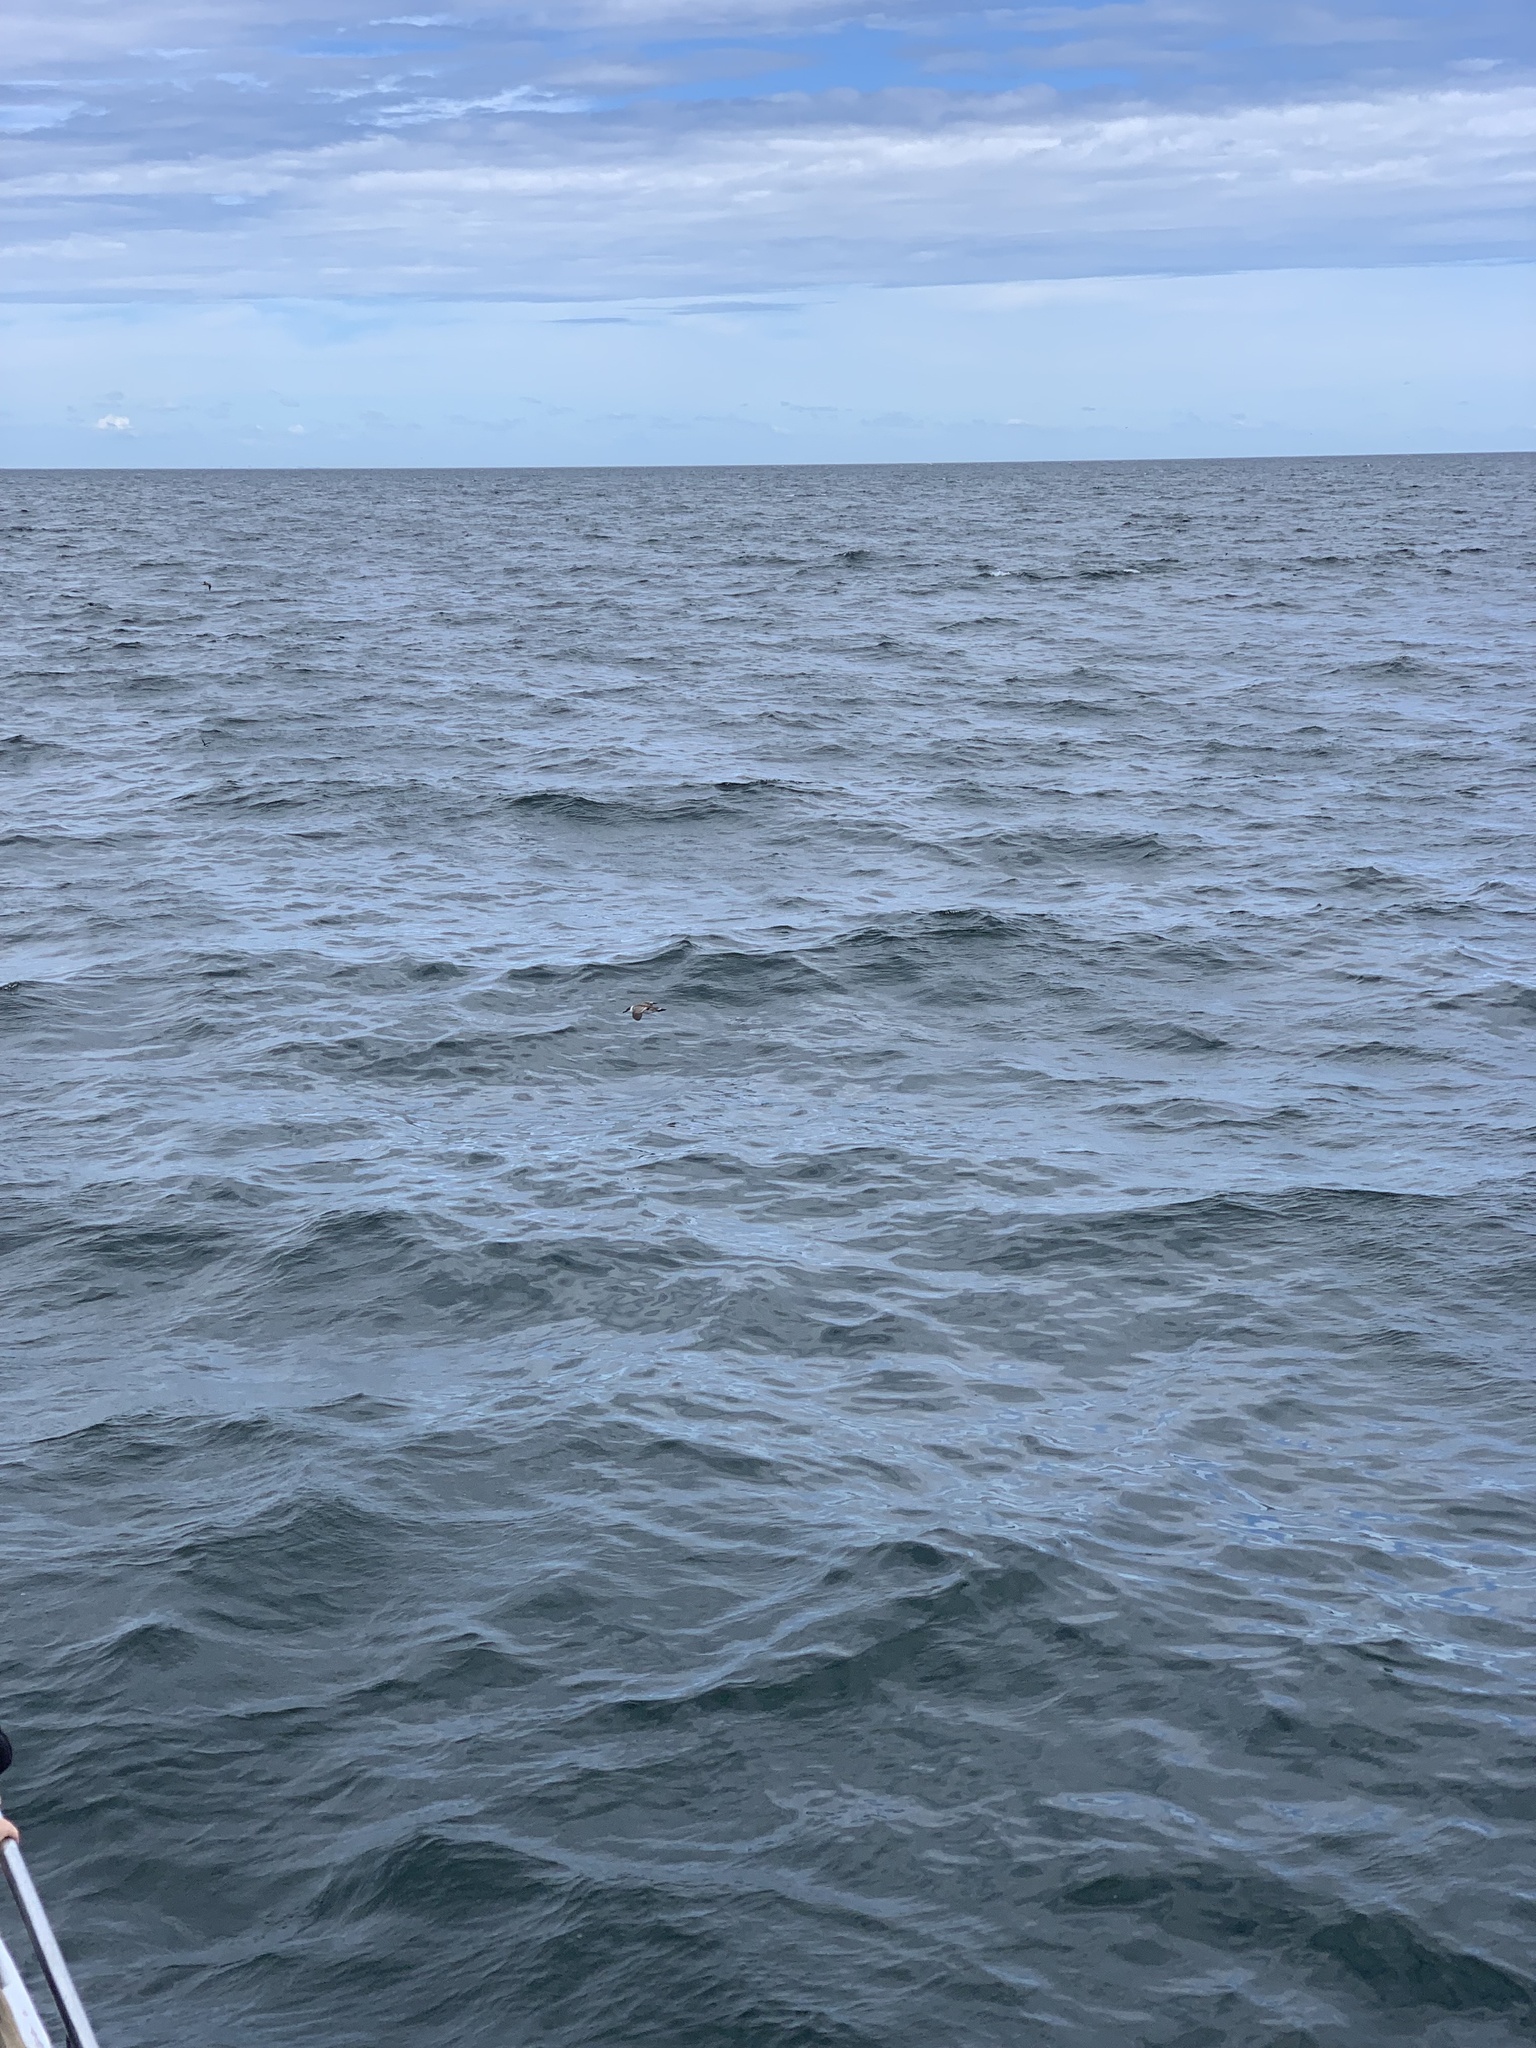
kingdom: Animalia
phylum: Chordata
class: Aves
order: Procellariiformes
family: Procellariidae
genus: Puffinus
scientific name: Puffinus gravis
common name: Great shearwater
